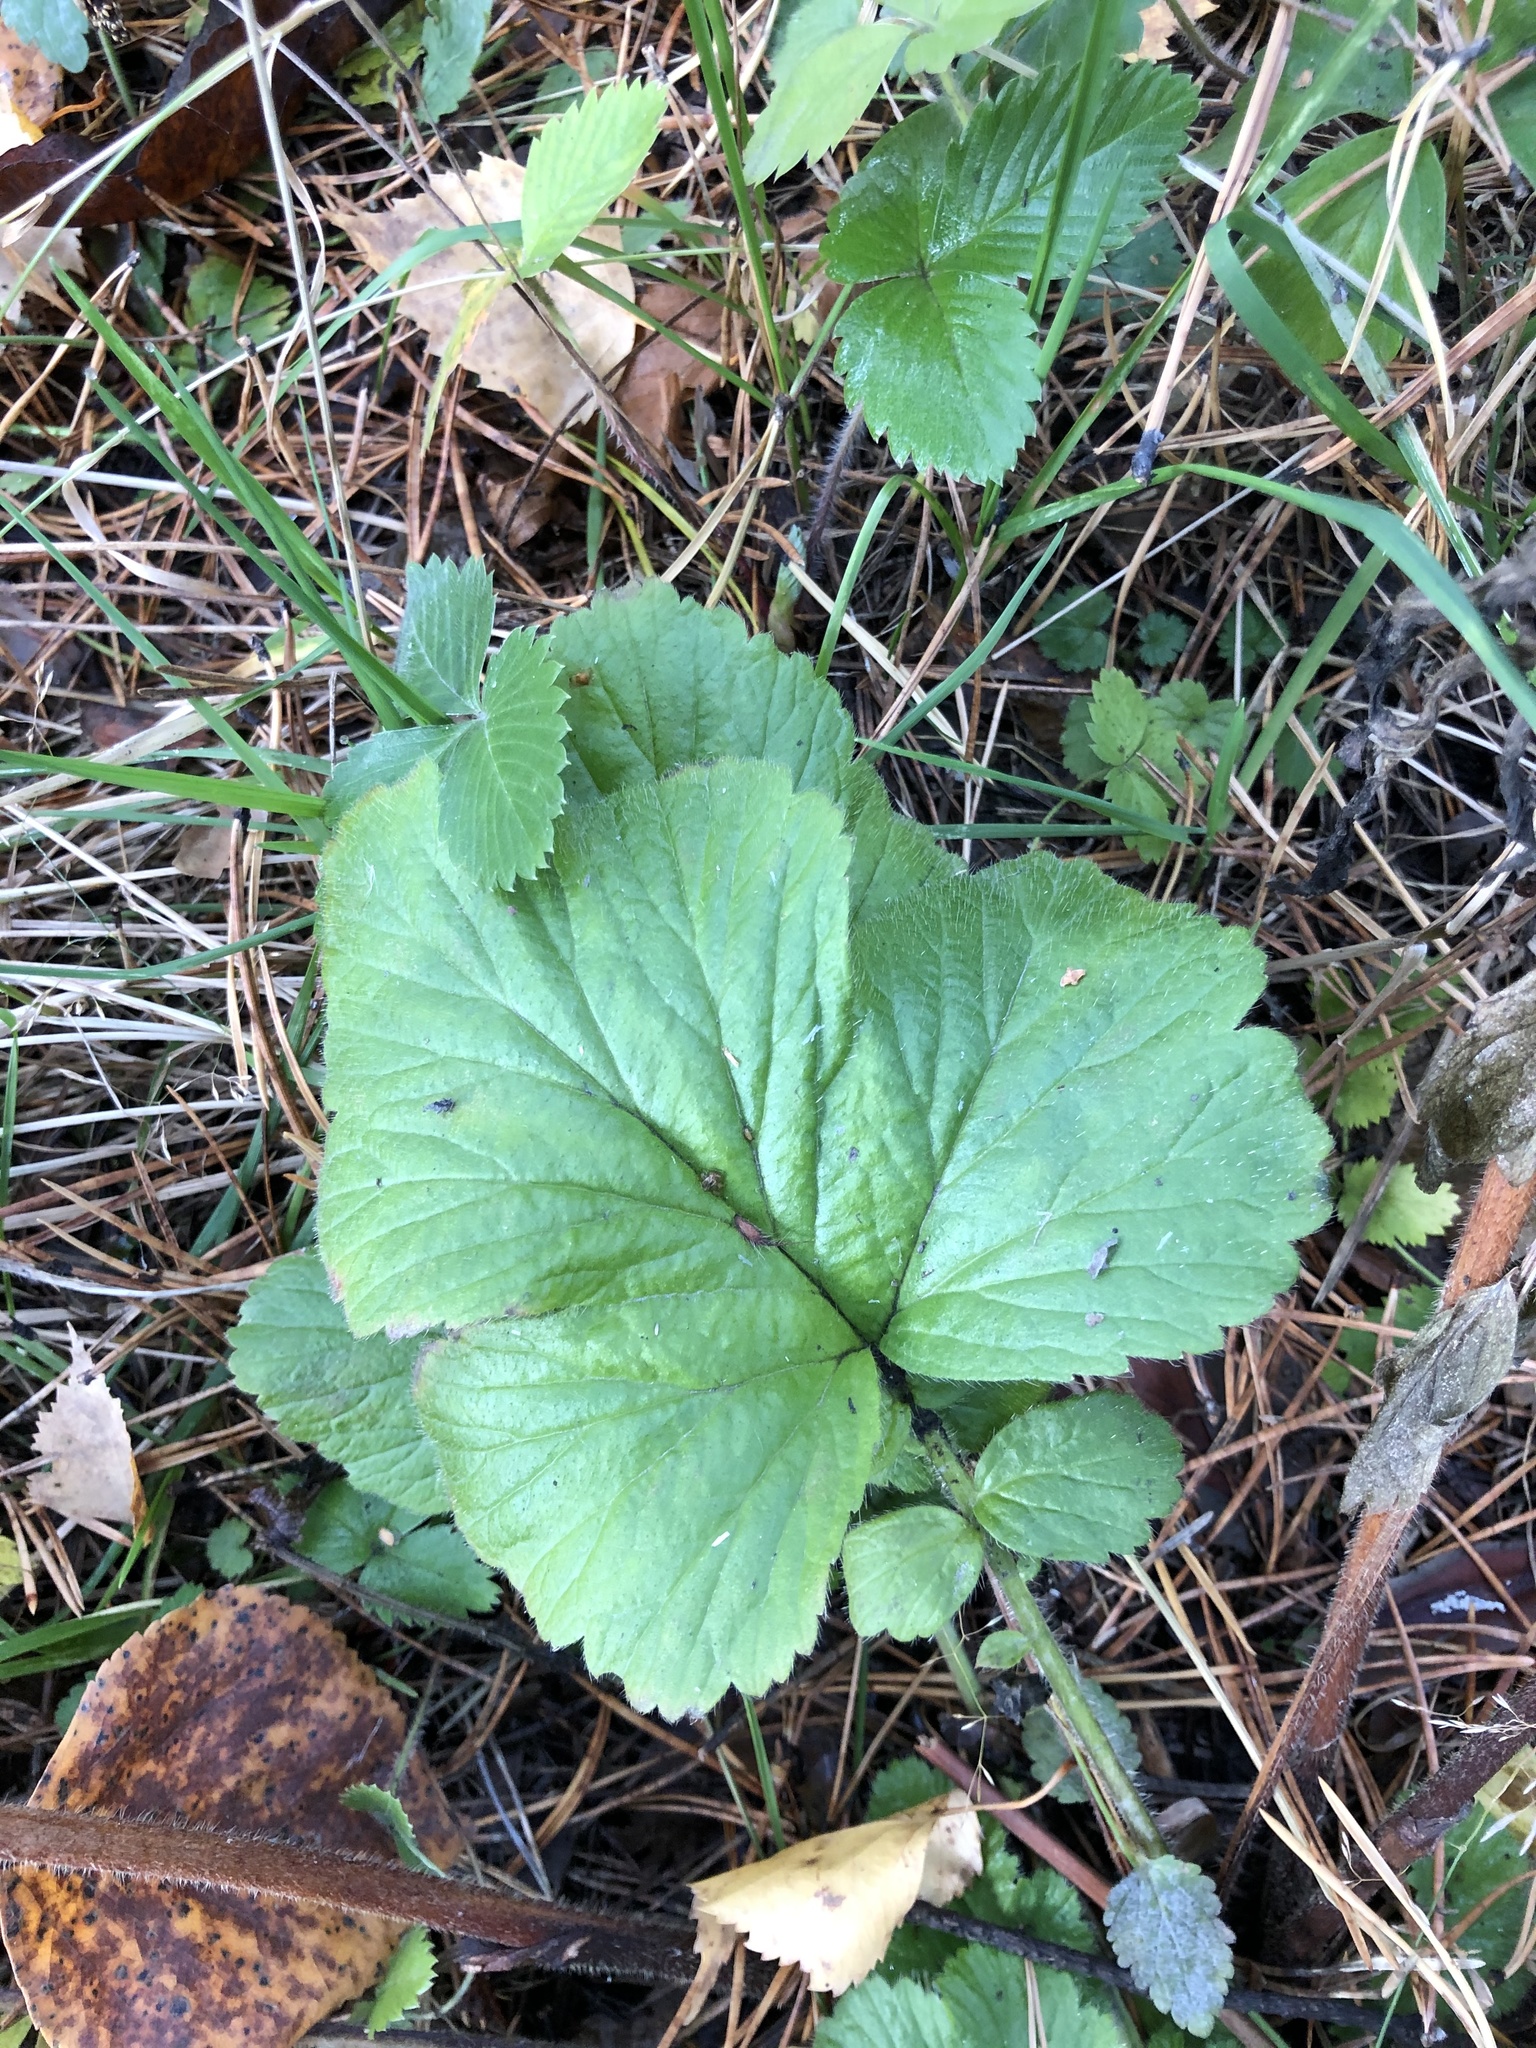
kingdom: Plantae
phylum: Tracheophyta
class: Magnoliopsida
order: Rosales
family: Rosaceae
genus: Geum
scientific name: Geum aleppicum
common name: Yellow avens
